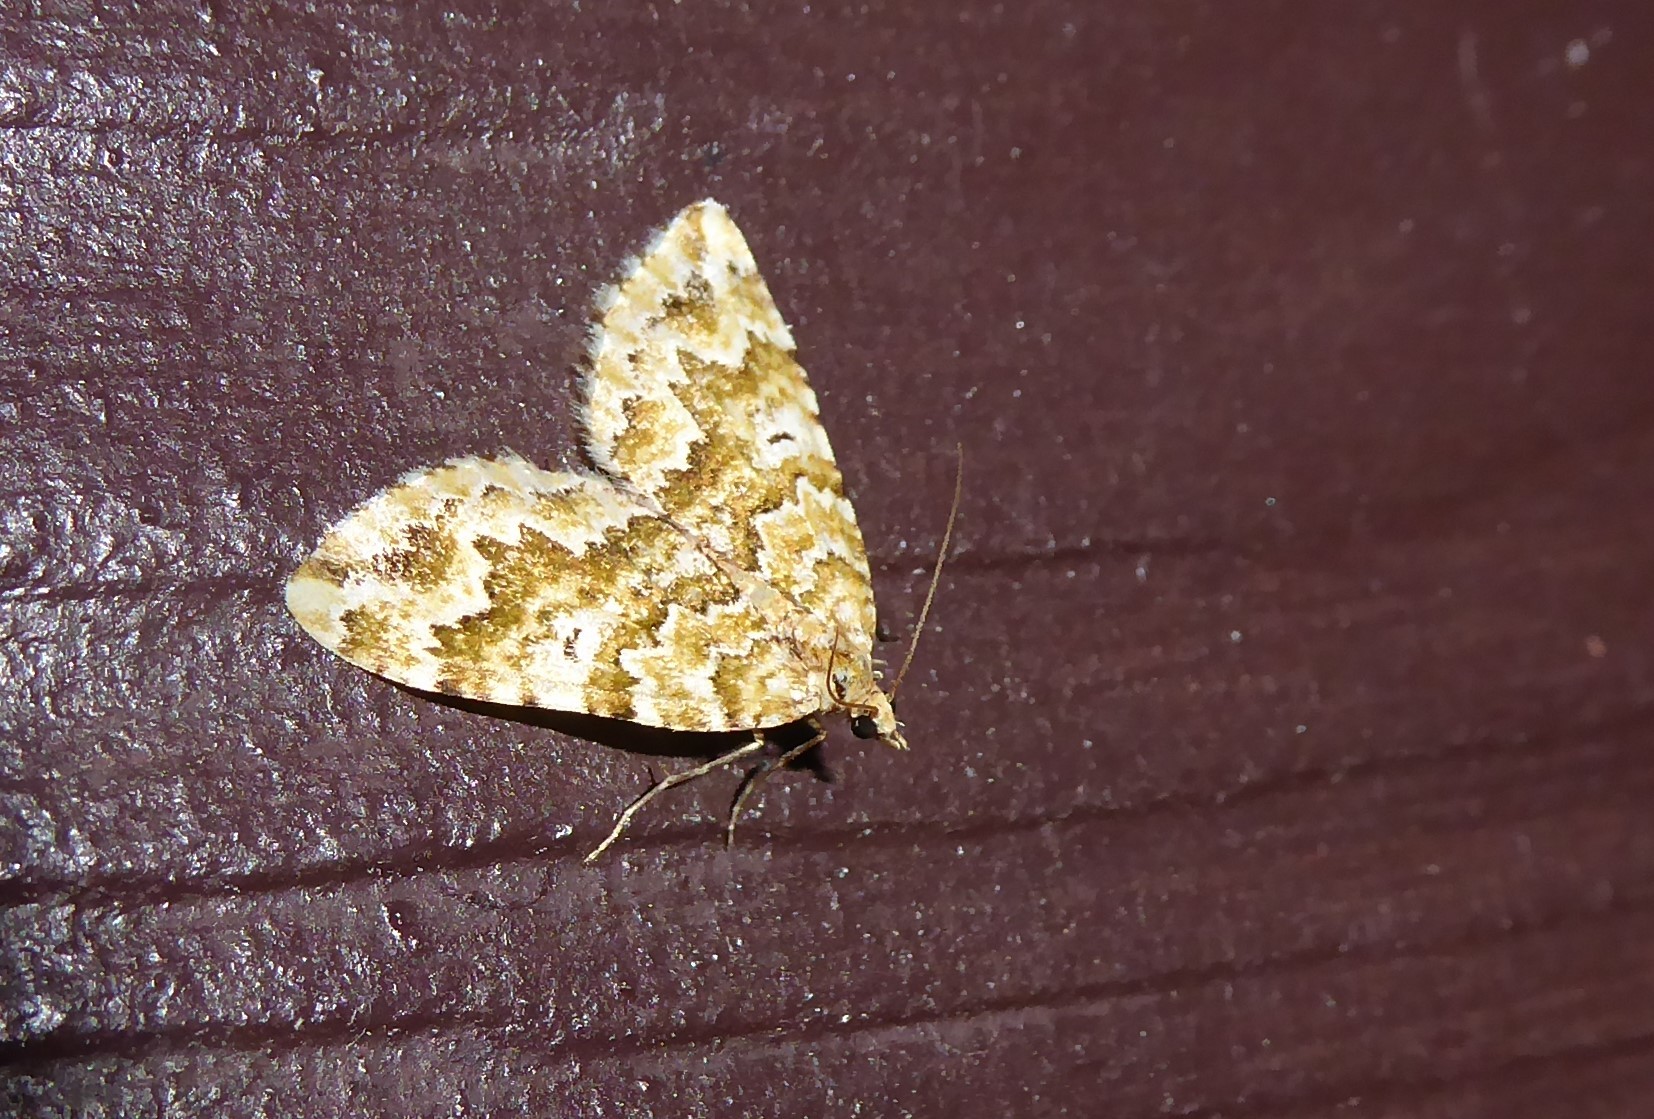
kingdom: Animalia
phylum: Arthropoda
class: Insecta
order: Lepidoptera
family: Geometridae
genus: Asaphodes
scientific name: Asaphodes beata
